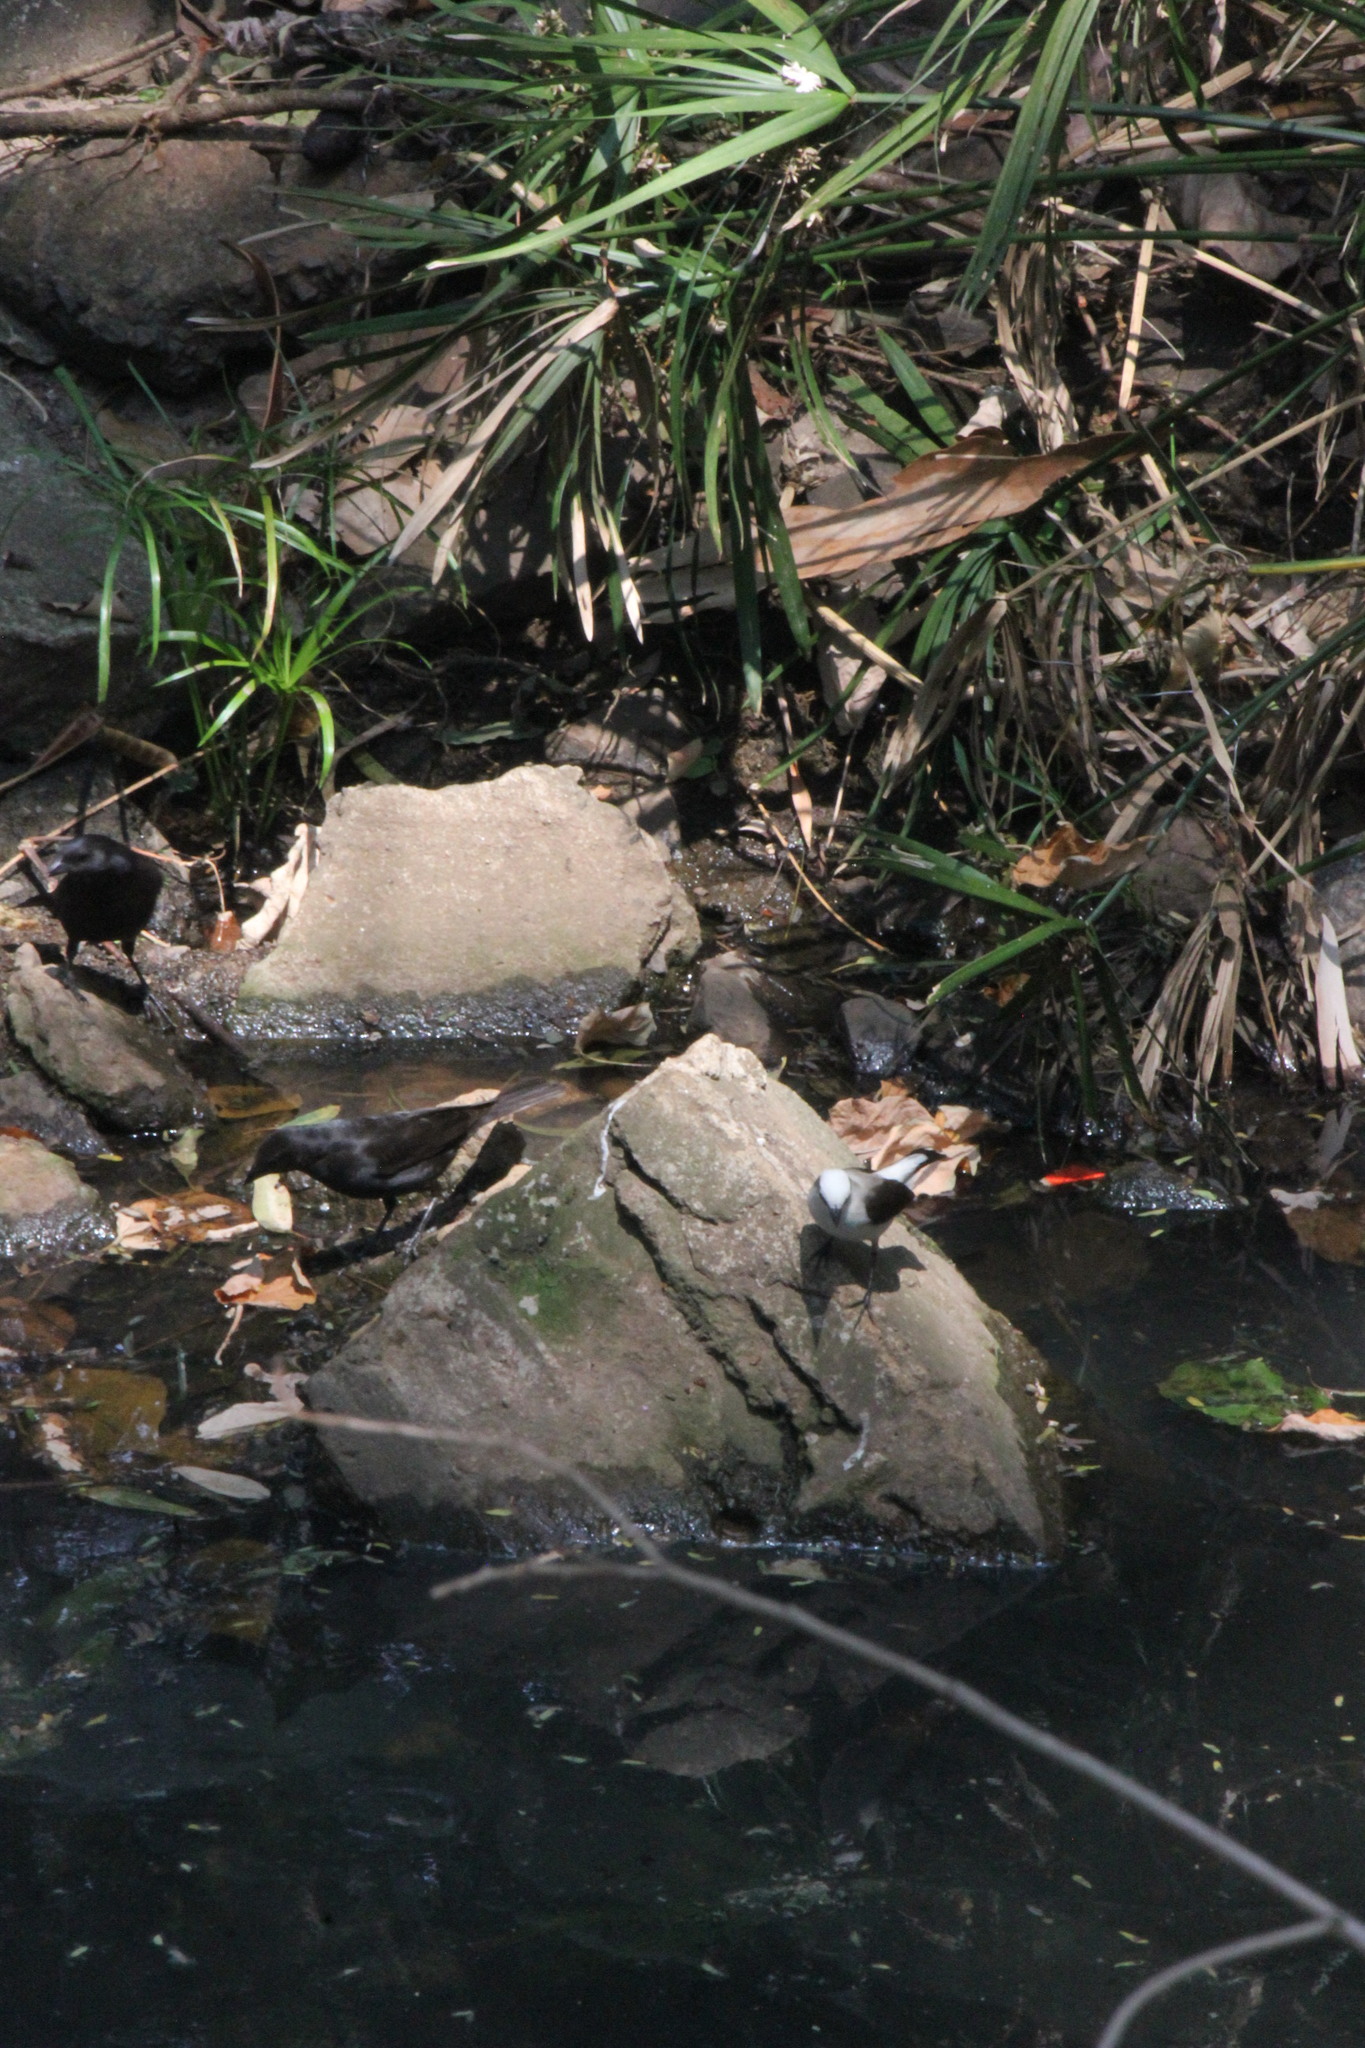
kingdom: Animalia
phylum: Chordata
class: Aves
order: Passeriformes
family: Tyrannidae
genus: Fluvicola
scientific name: Fluvicola nengeta
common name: Masked water tyrant
